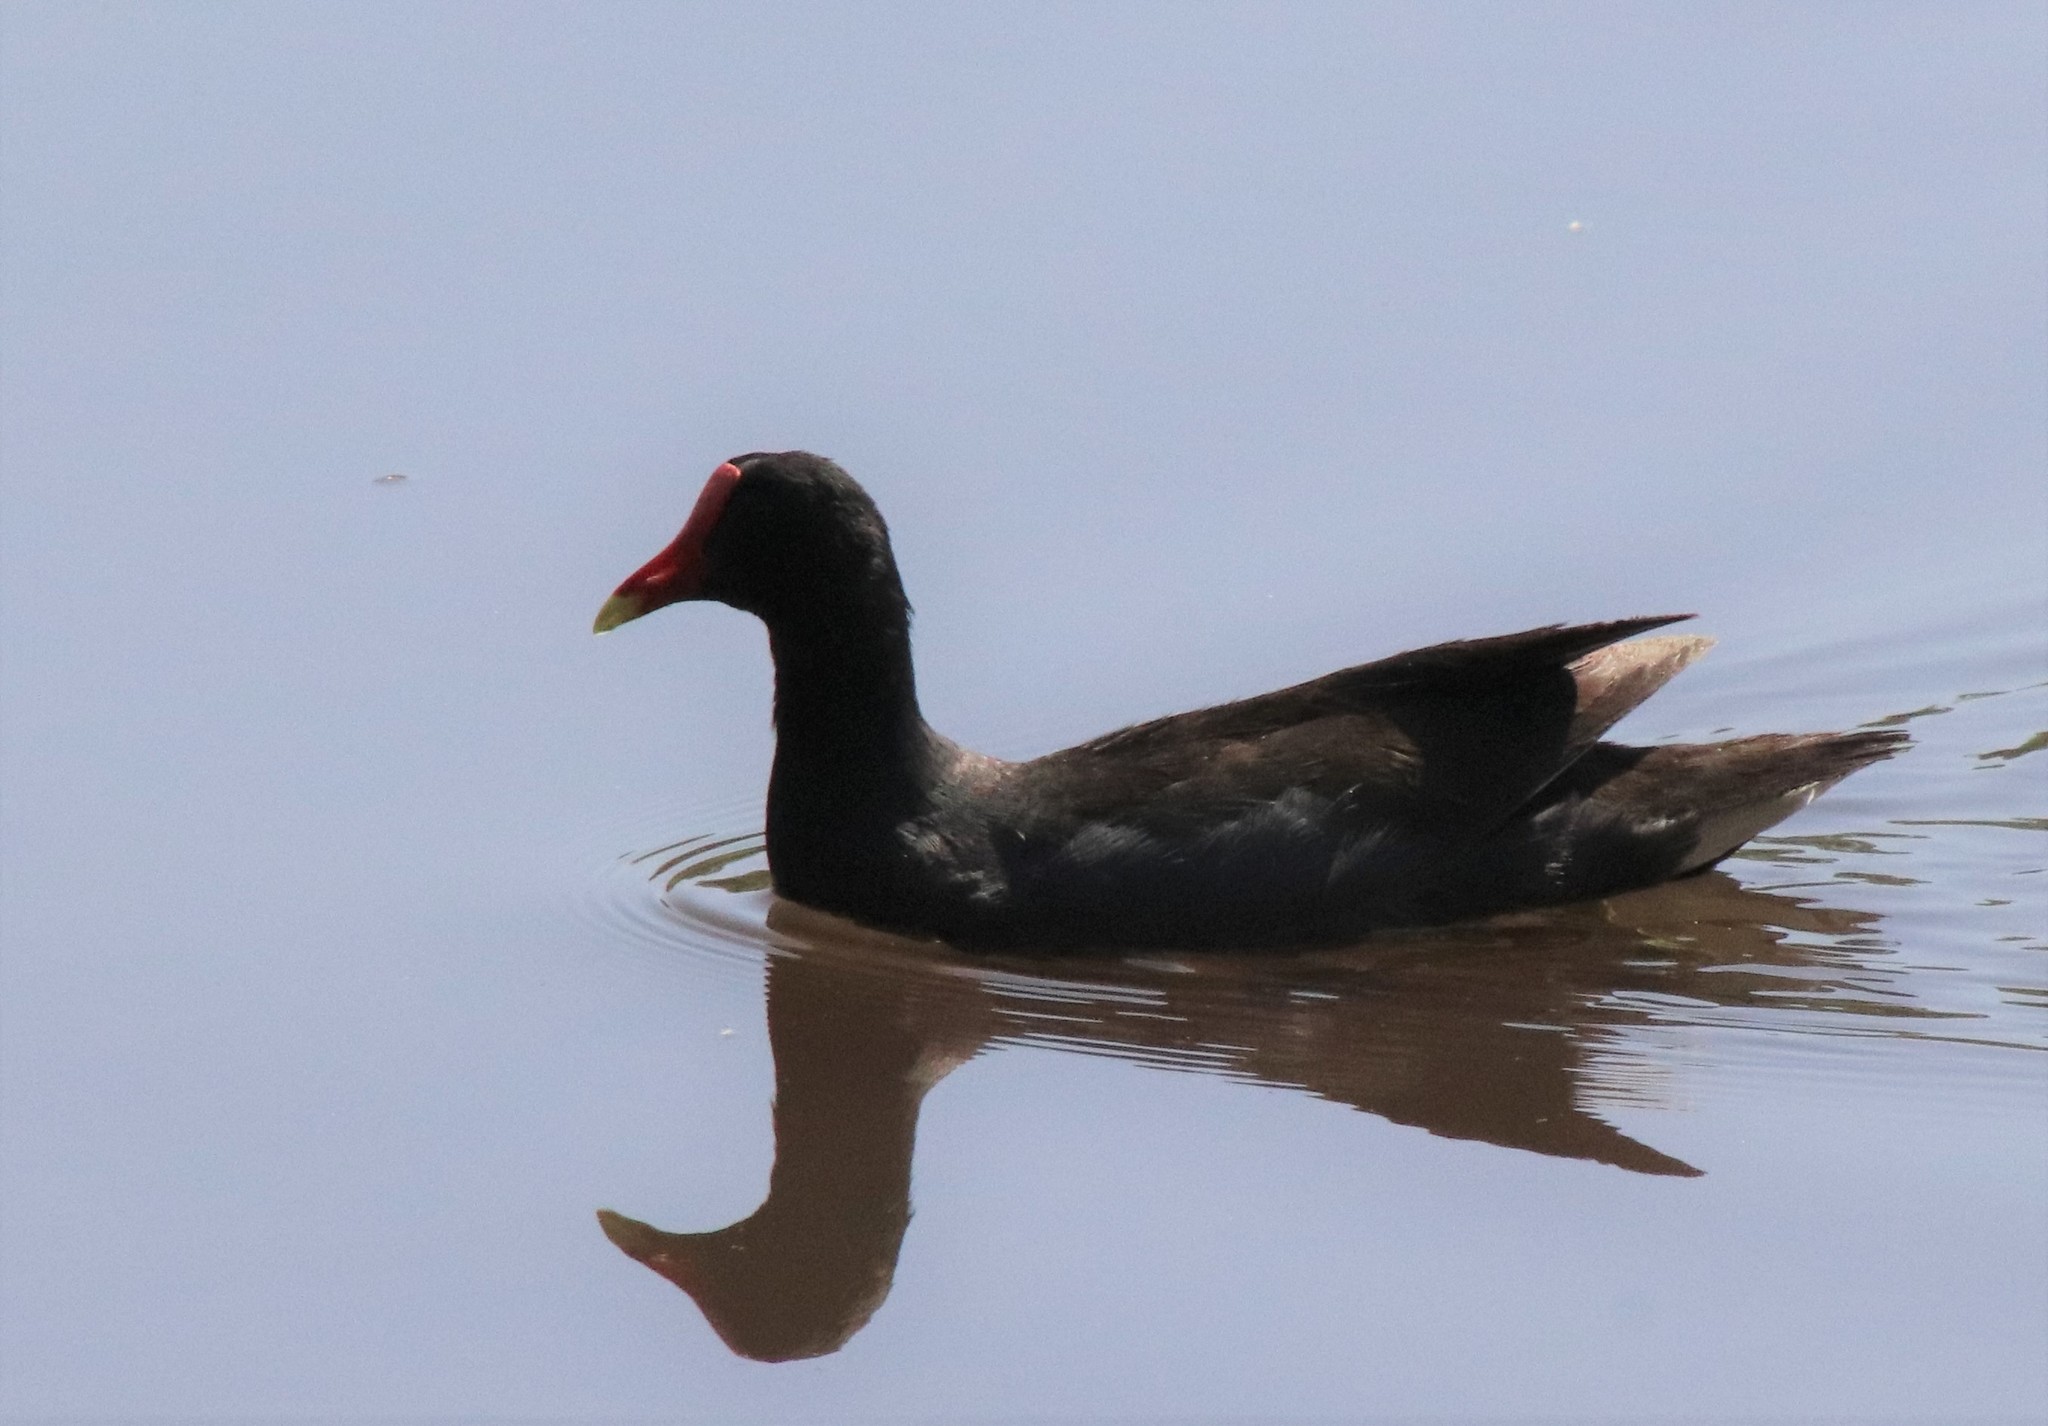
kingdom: Animalia
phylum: Chordata
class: Aves
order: Gruiformes
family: Rallidae
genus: Gallinula
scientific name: Gallinula chloropus
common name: Common moorhen
